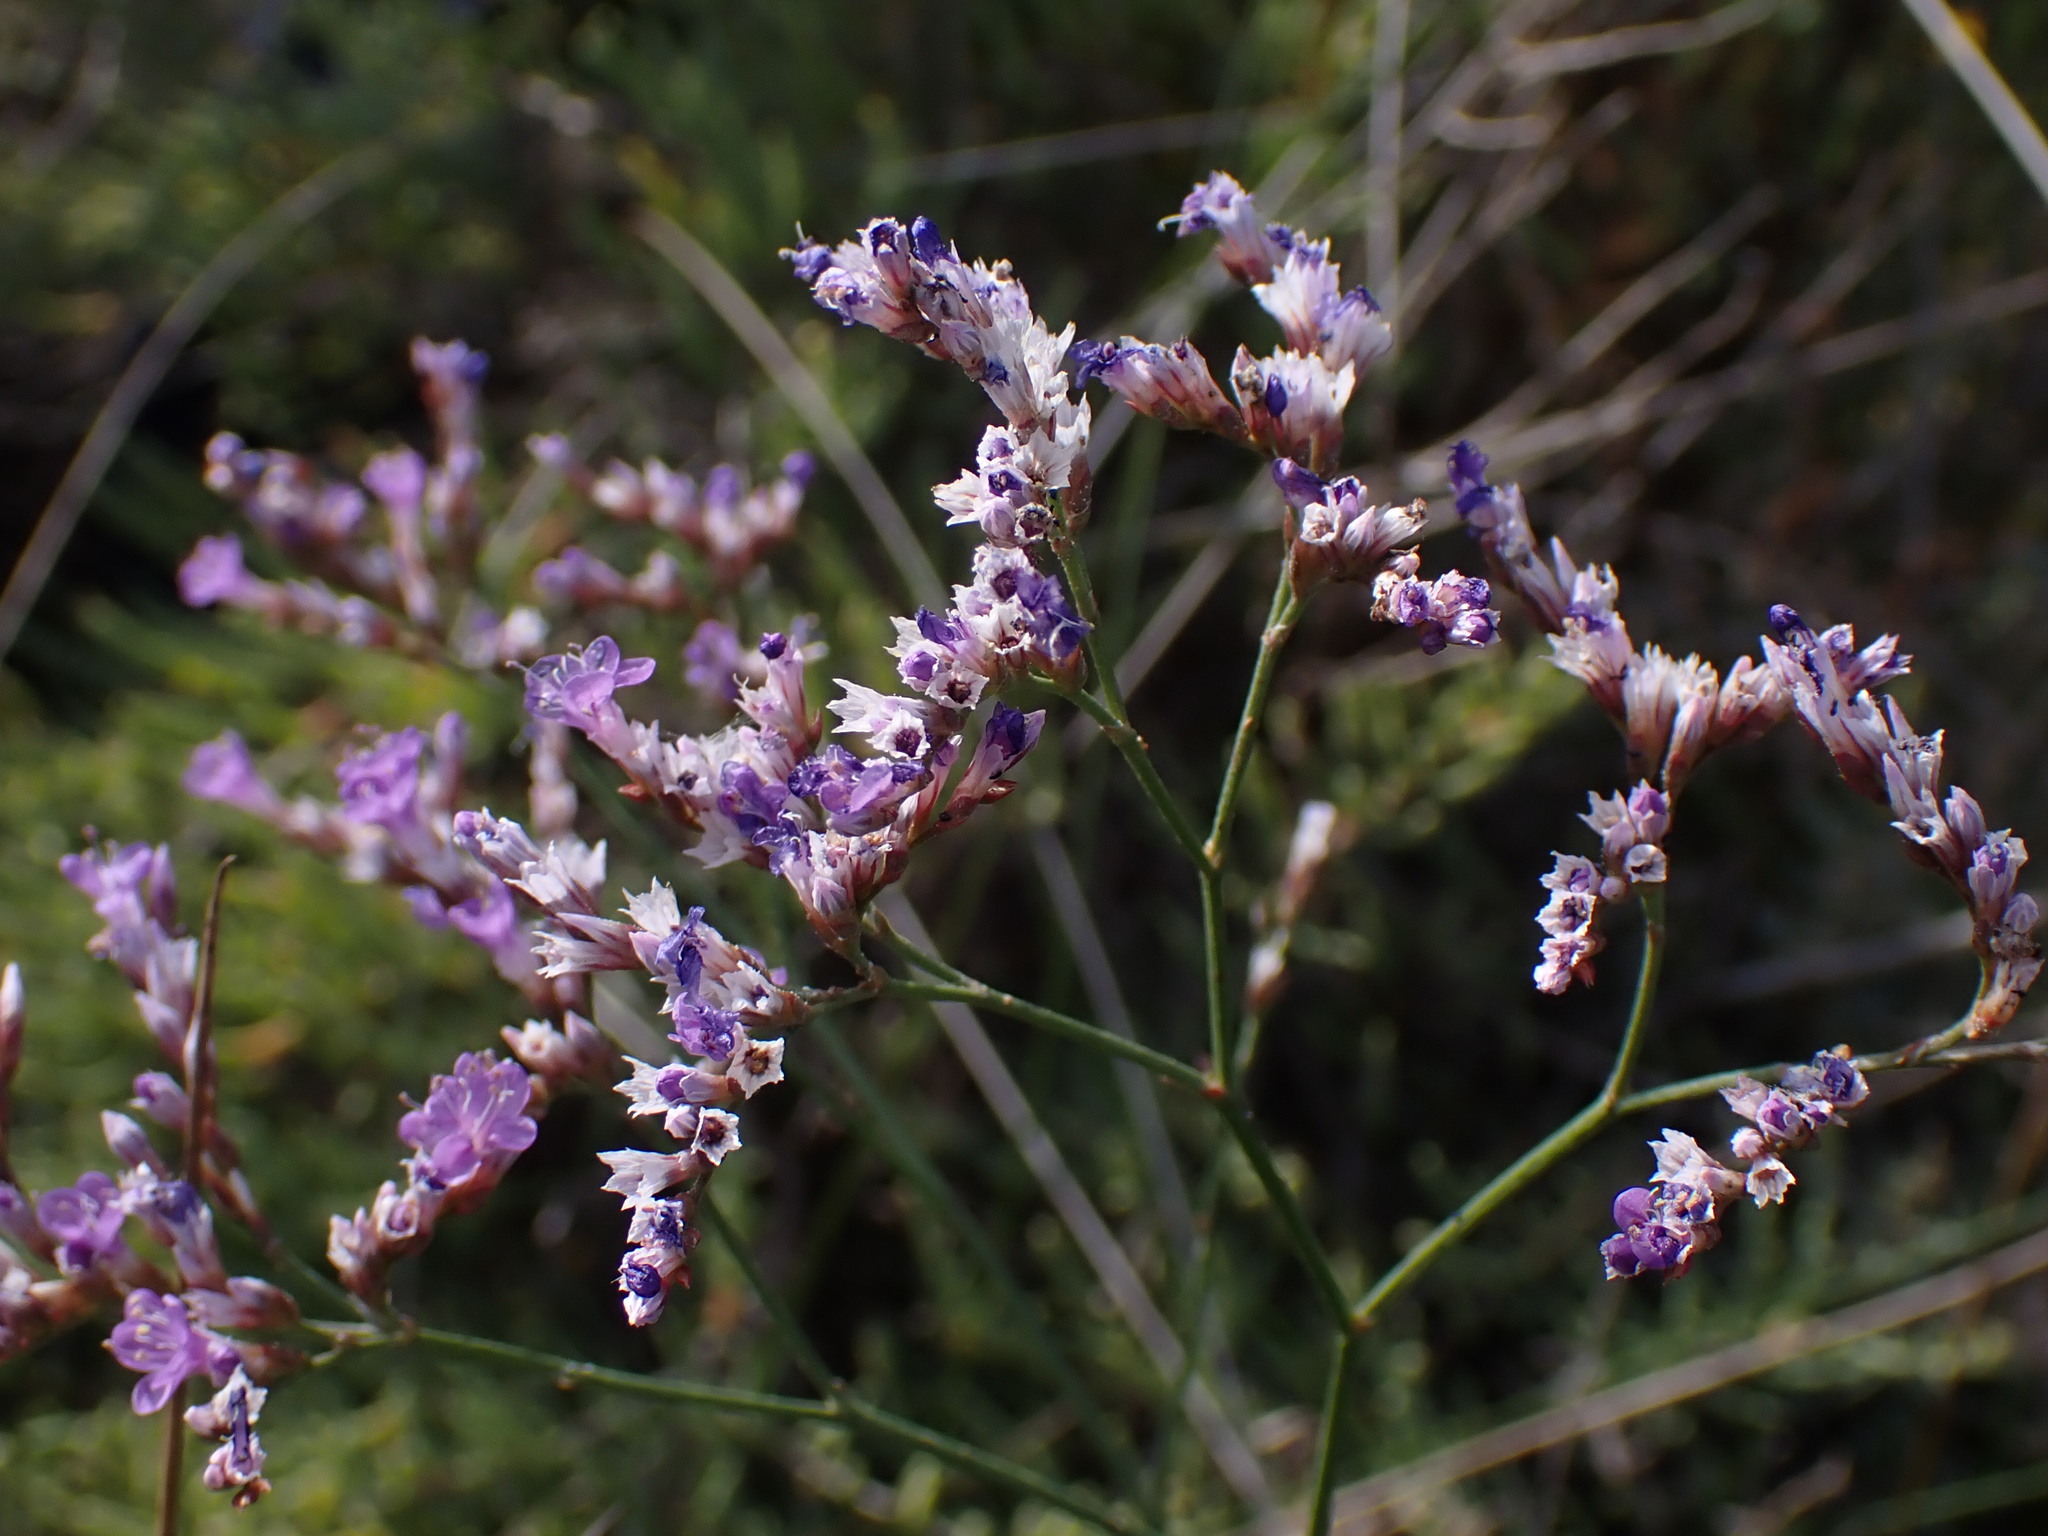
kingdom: Plantae
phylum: Tracheophyta
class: Magnoliopsida
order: Caryophyllales
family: Plumbaginaceae
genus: Limonium
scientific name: Limonium narbonense
